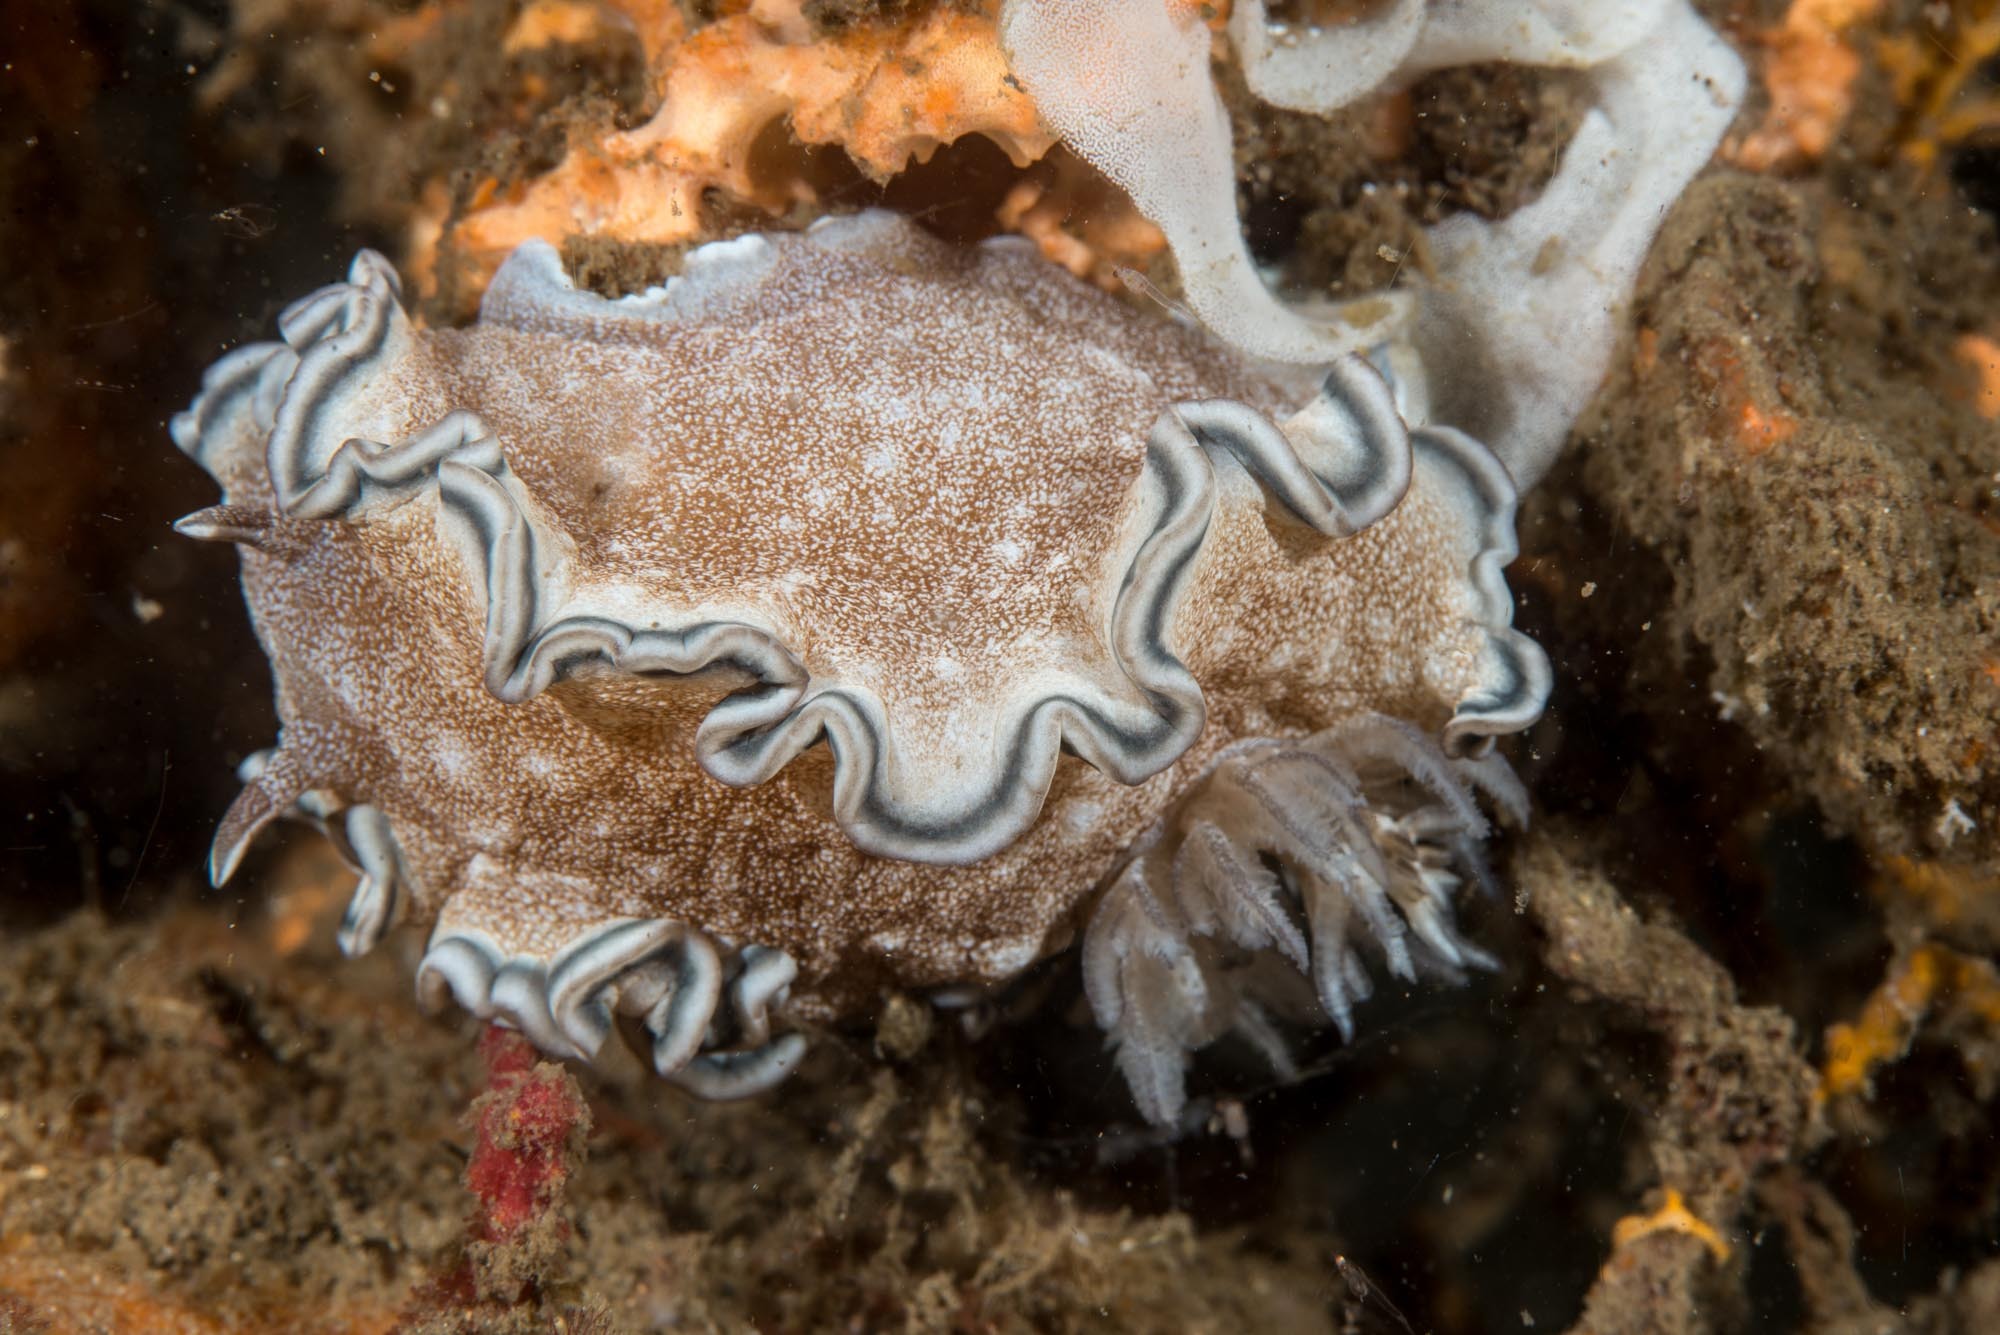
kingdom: Animalia
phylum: Mollusca
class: Gastropoda
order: Nudibranchia
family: Chromodorididae
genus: Glossodoris
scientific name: Glossodoris hikuerensis
